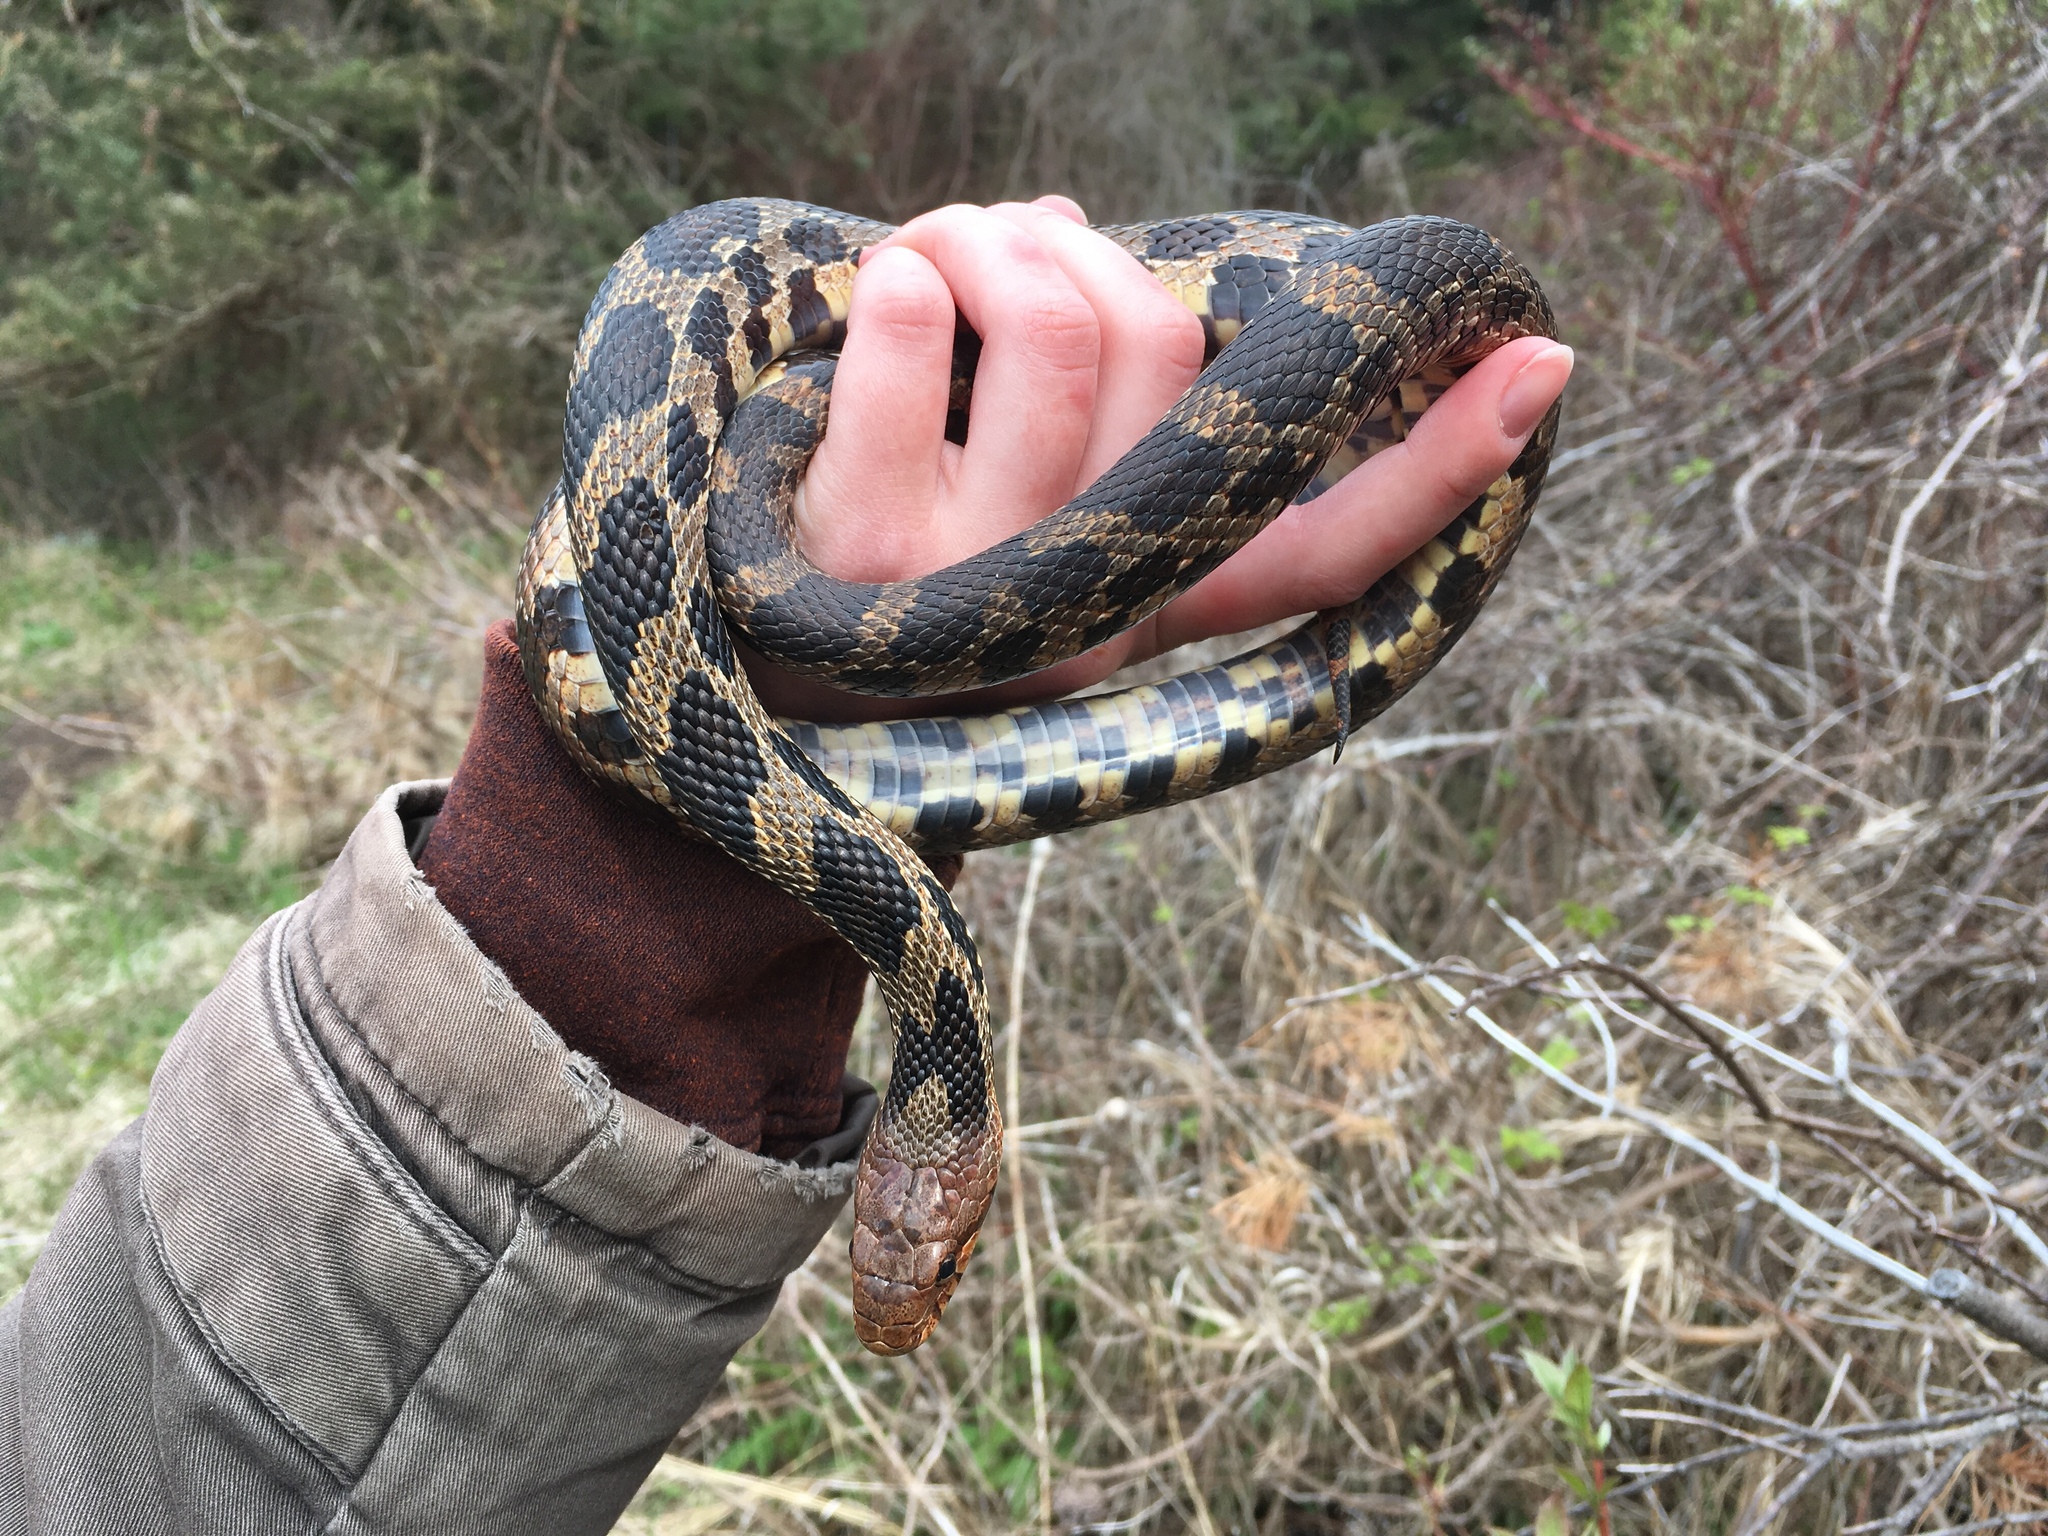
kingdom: Animalia
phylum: Chordata
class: Squamata
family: Colubridae
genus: Pantherophis
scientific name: Pantherophis vulpinus
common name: Eastern fox snake
